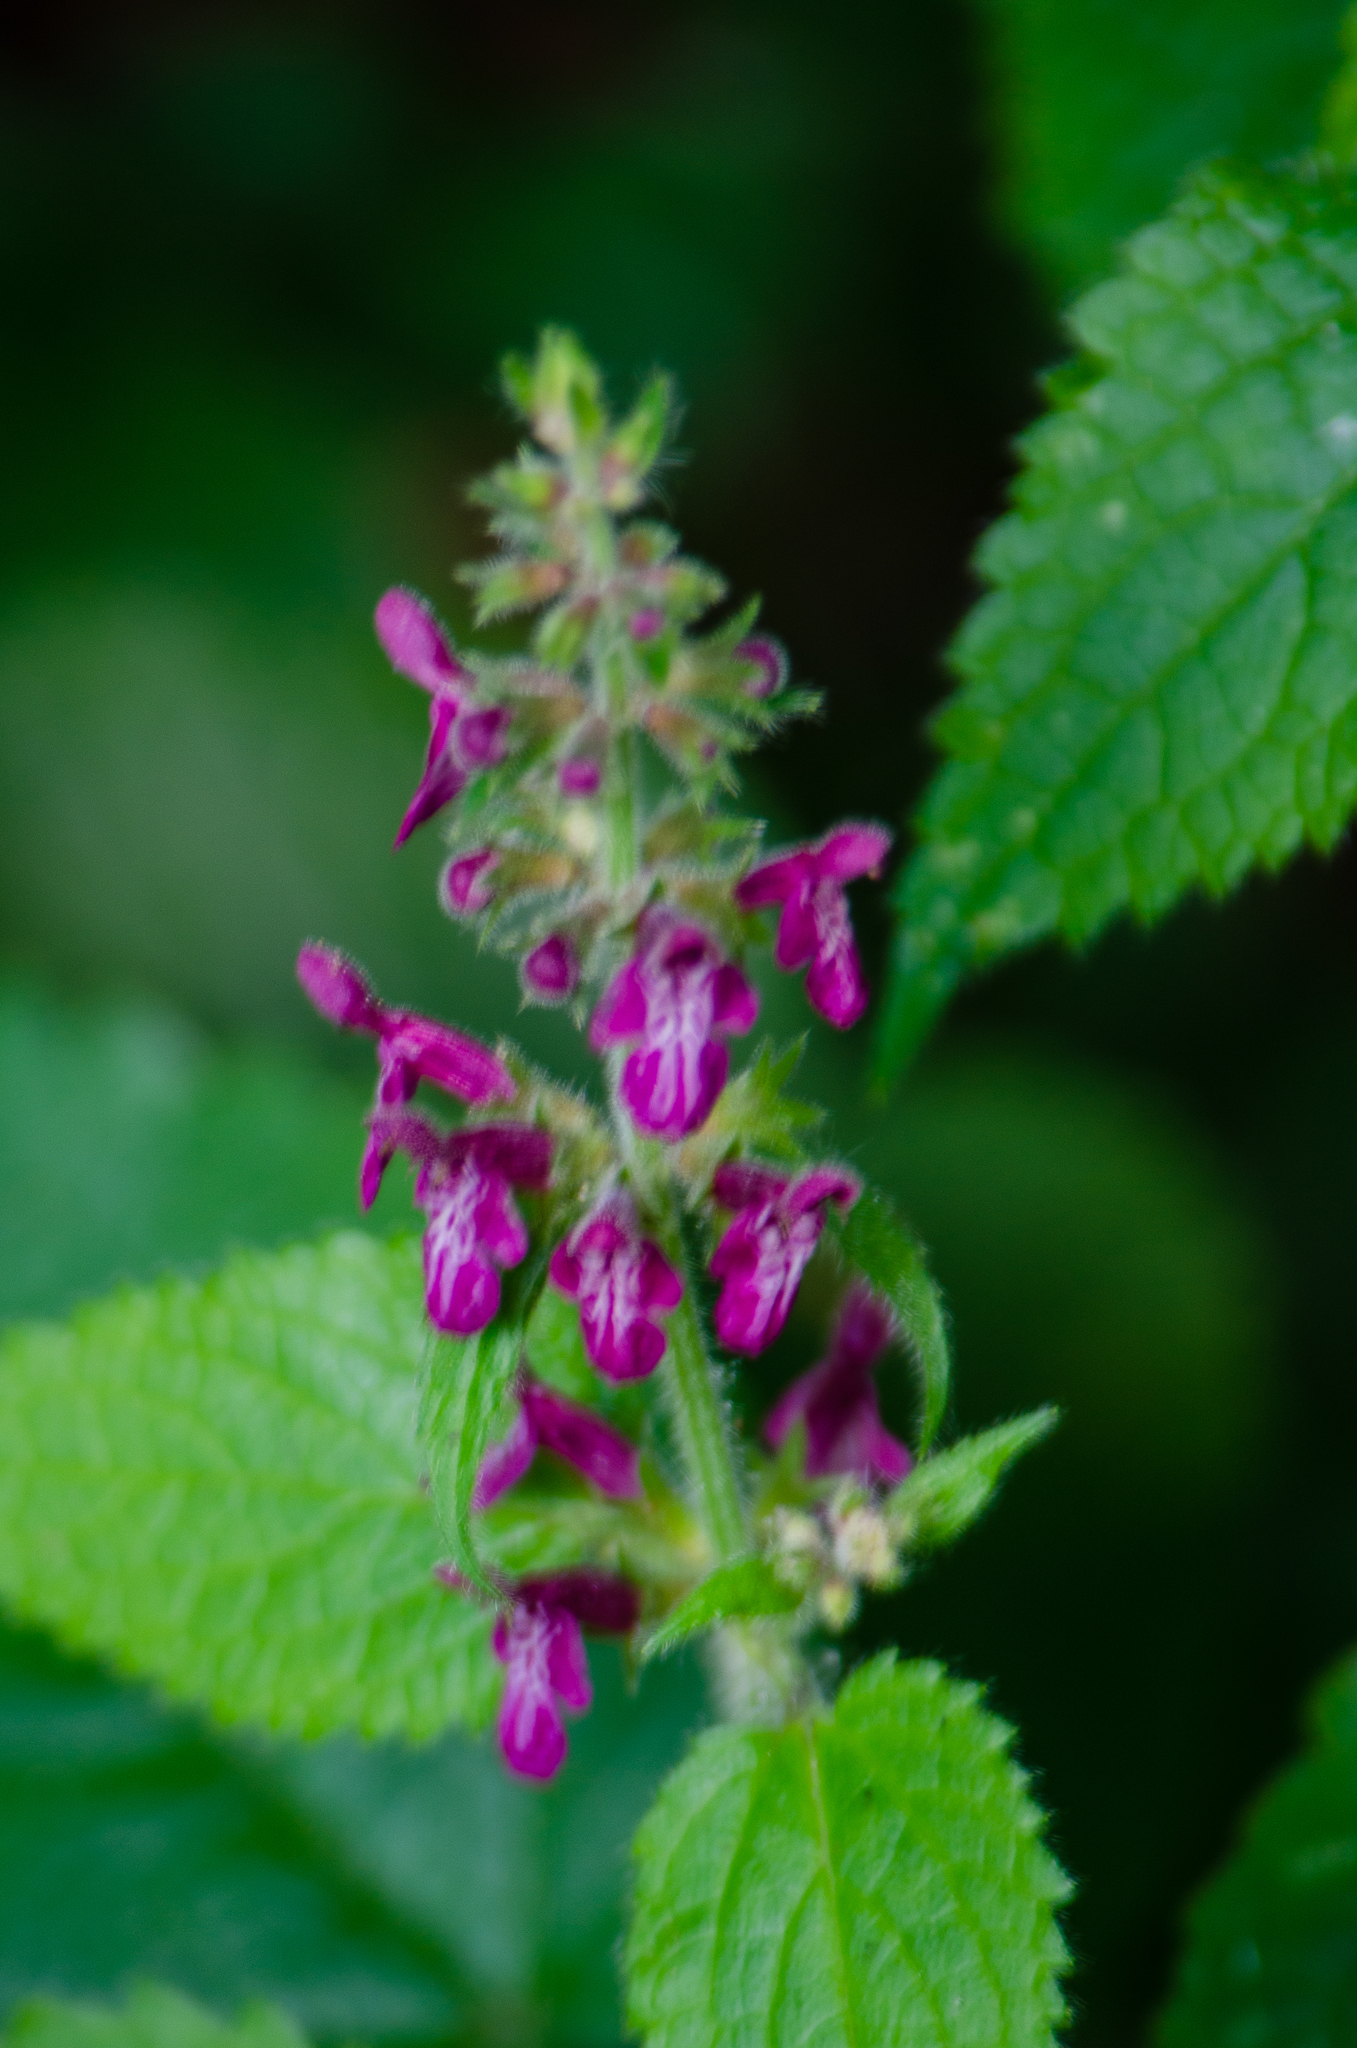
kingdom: Plantae
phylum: Tracheophyta
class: Magnoliopsida
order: Lamiales
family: Lamiaceae
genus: Stachys
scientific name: Stachys sylvatica
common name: Hedge woundwort
